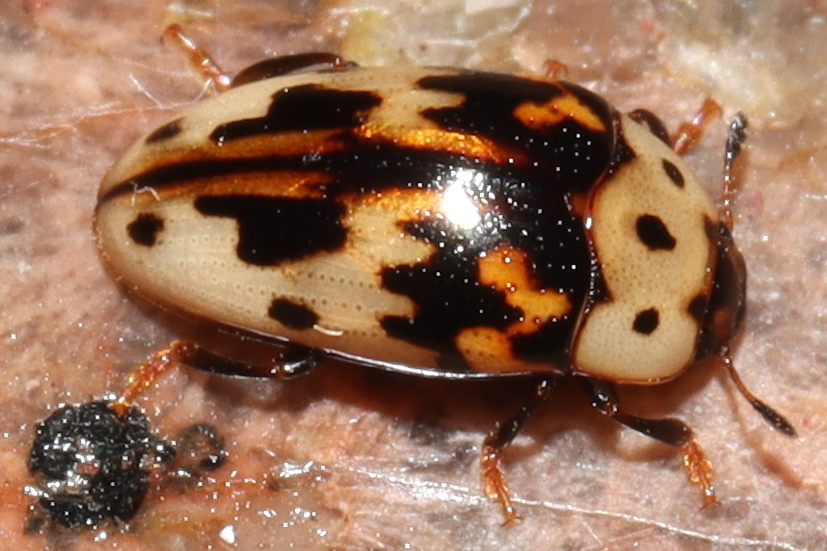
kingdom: Animalia
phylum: Arthropoda
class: Insecta
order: Coleoptera
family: Erotylidae
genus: Ischyrus
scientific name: Ischyrus
